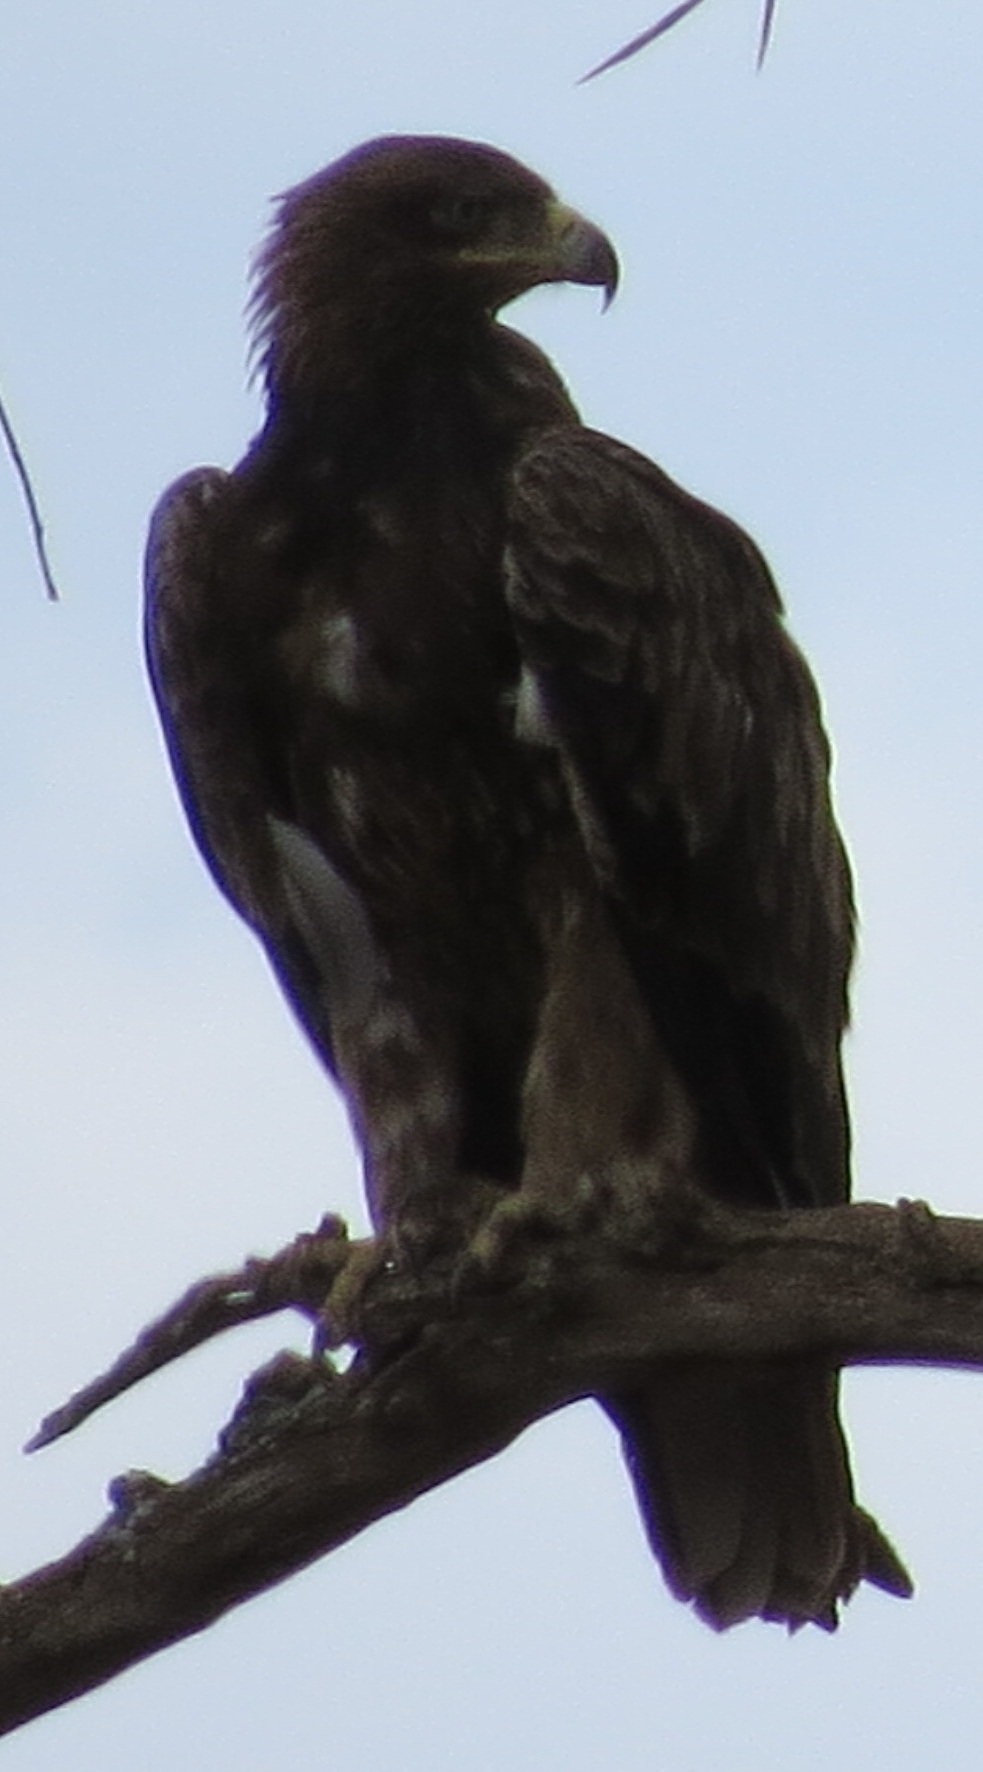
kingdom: Animalia
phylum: Chordata
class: Aves
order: Accipitriformes
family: Accipitridae
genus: Aquila
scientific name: Aquila rapax
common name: Tawny eagle
